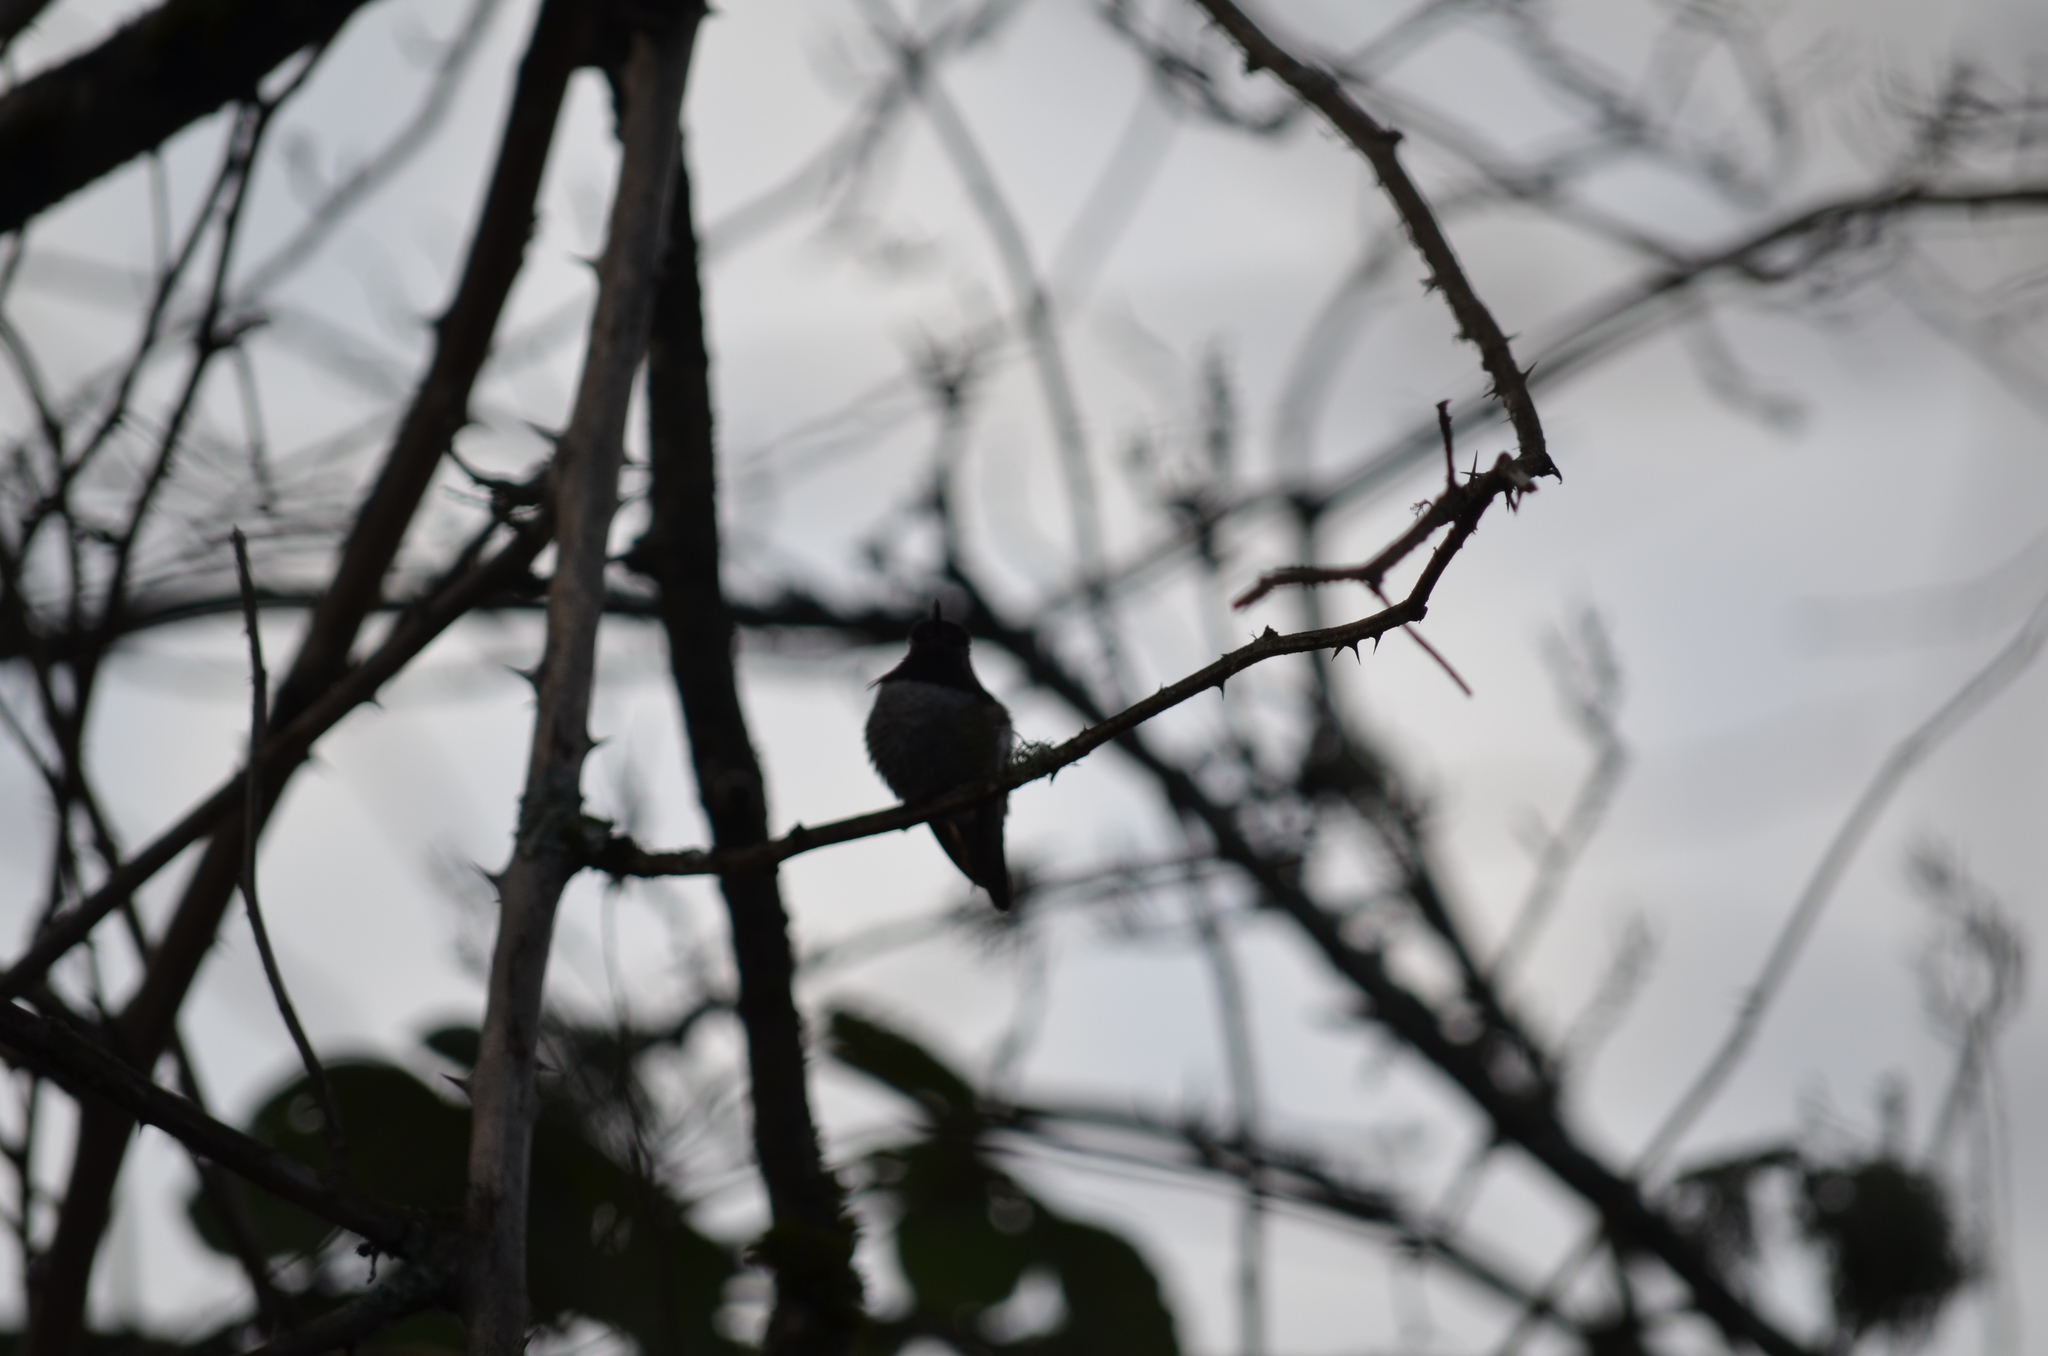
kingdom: Animalia
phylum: Chordata
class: Aves
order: Apodiformes
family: Trochilidae
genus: Calypte
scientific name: Calypte anna
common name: Anna's hummingbird
